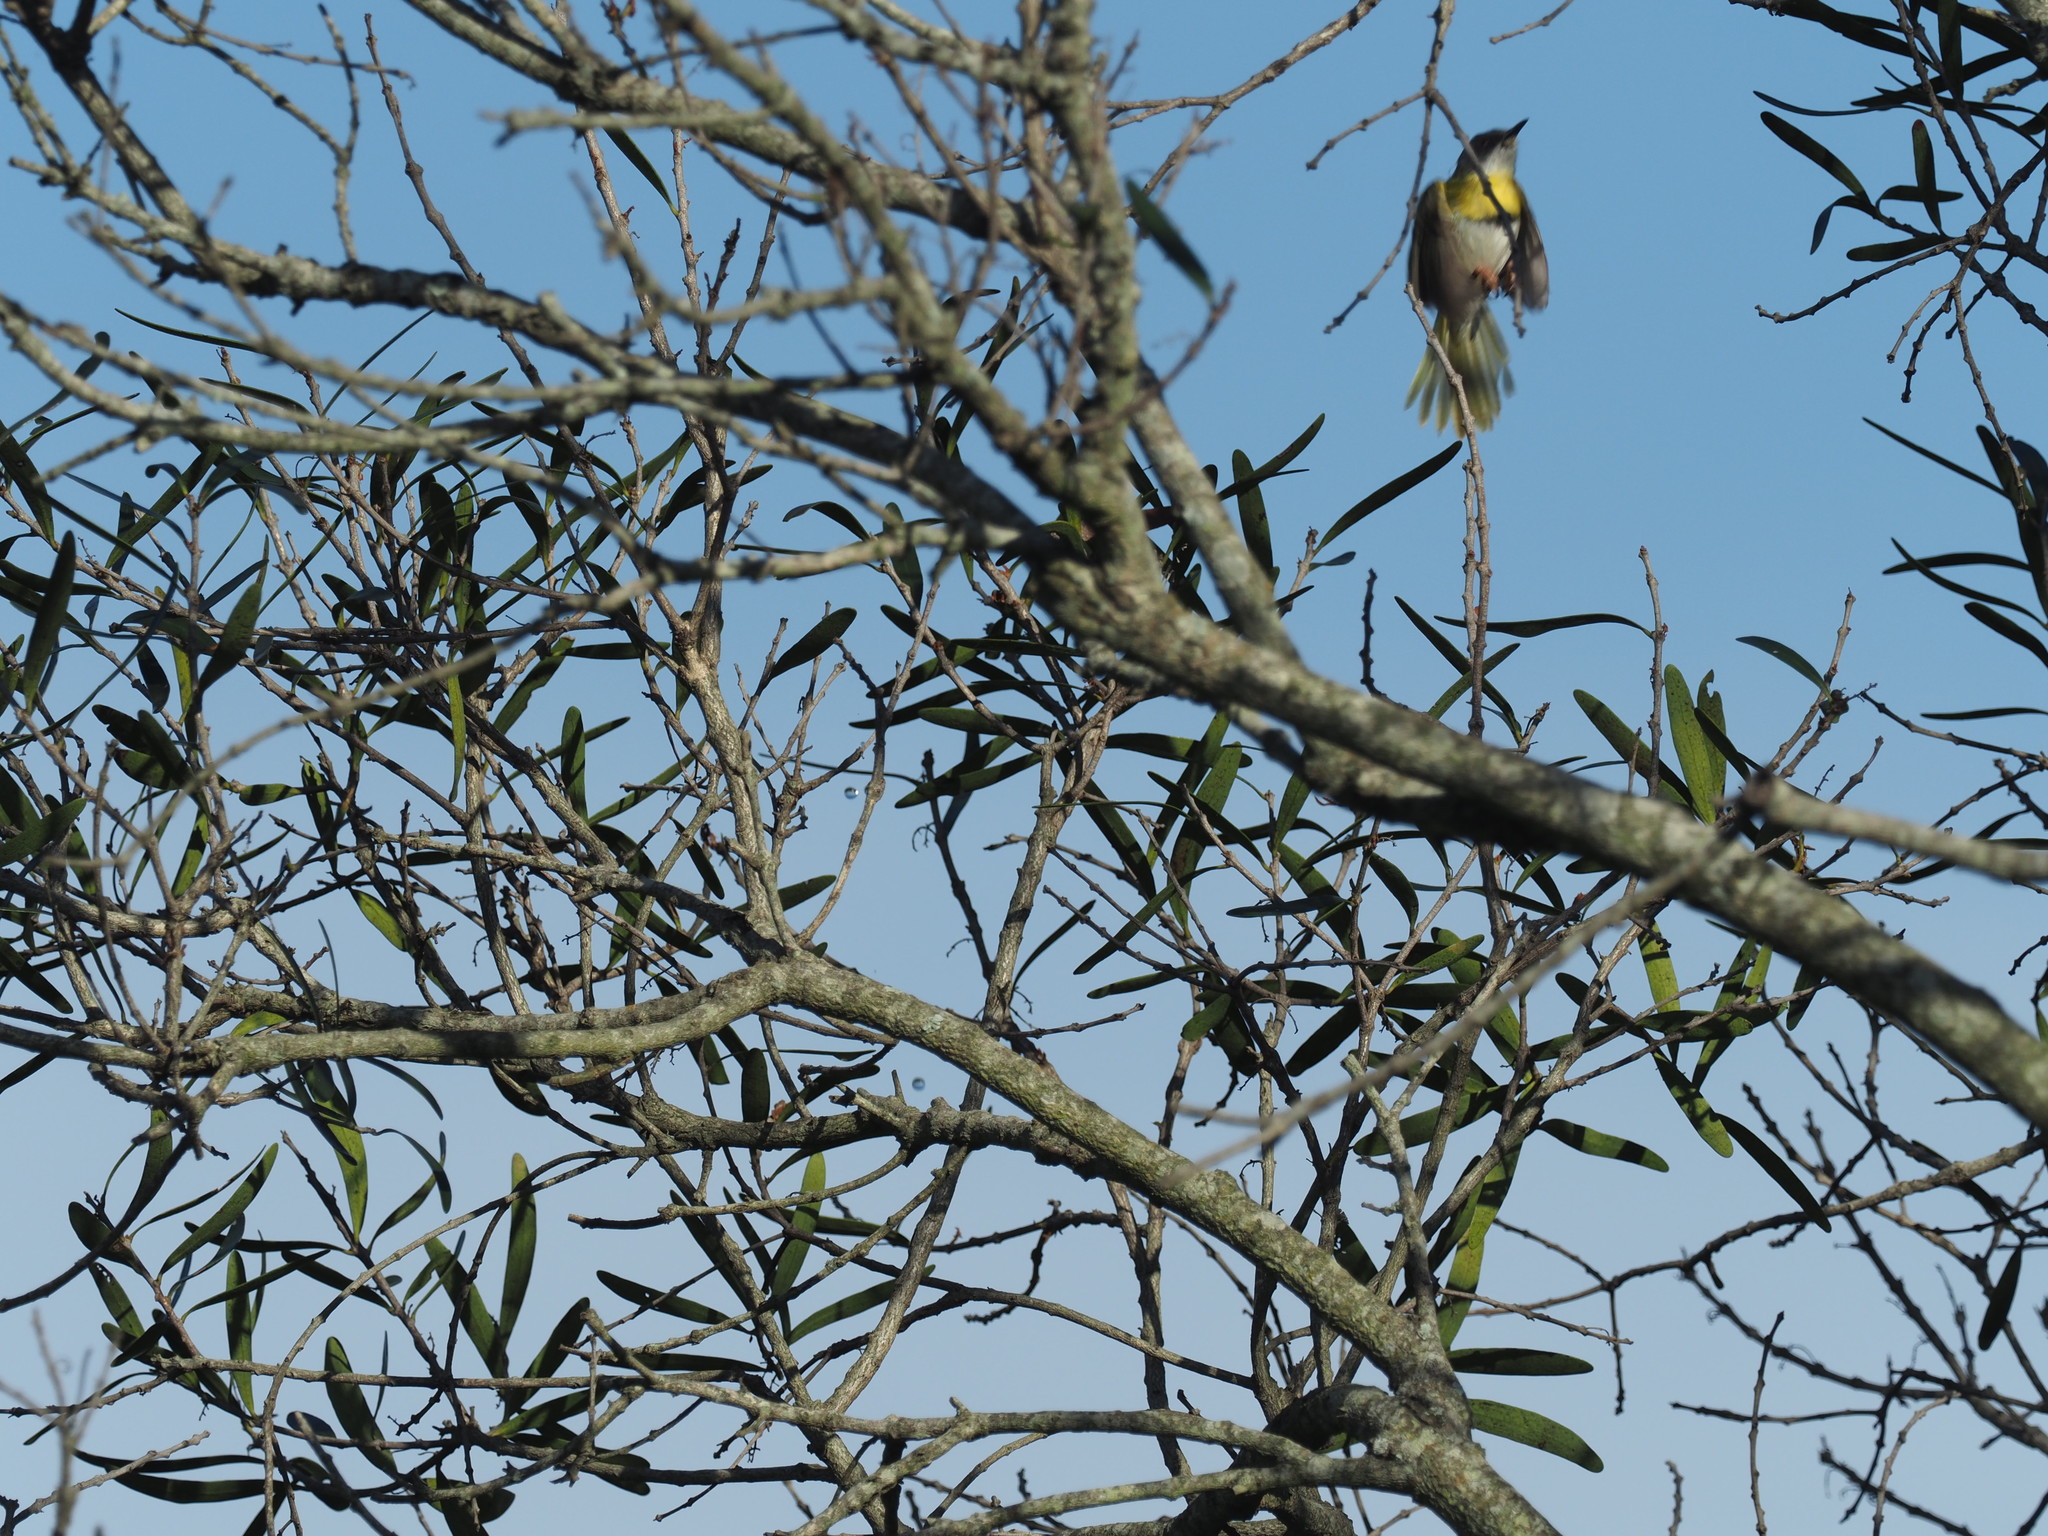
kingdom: Animalia
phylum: Chordata
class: Aves
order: Passeriformes
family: Cisticolidae
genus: Apalis
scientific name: Apalis flavida
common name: Yellow-breasted apalis
